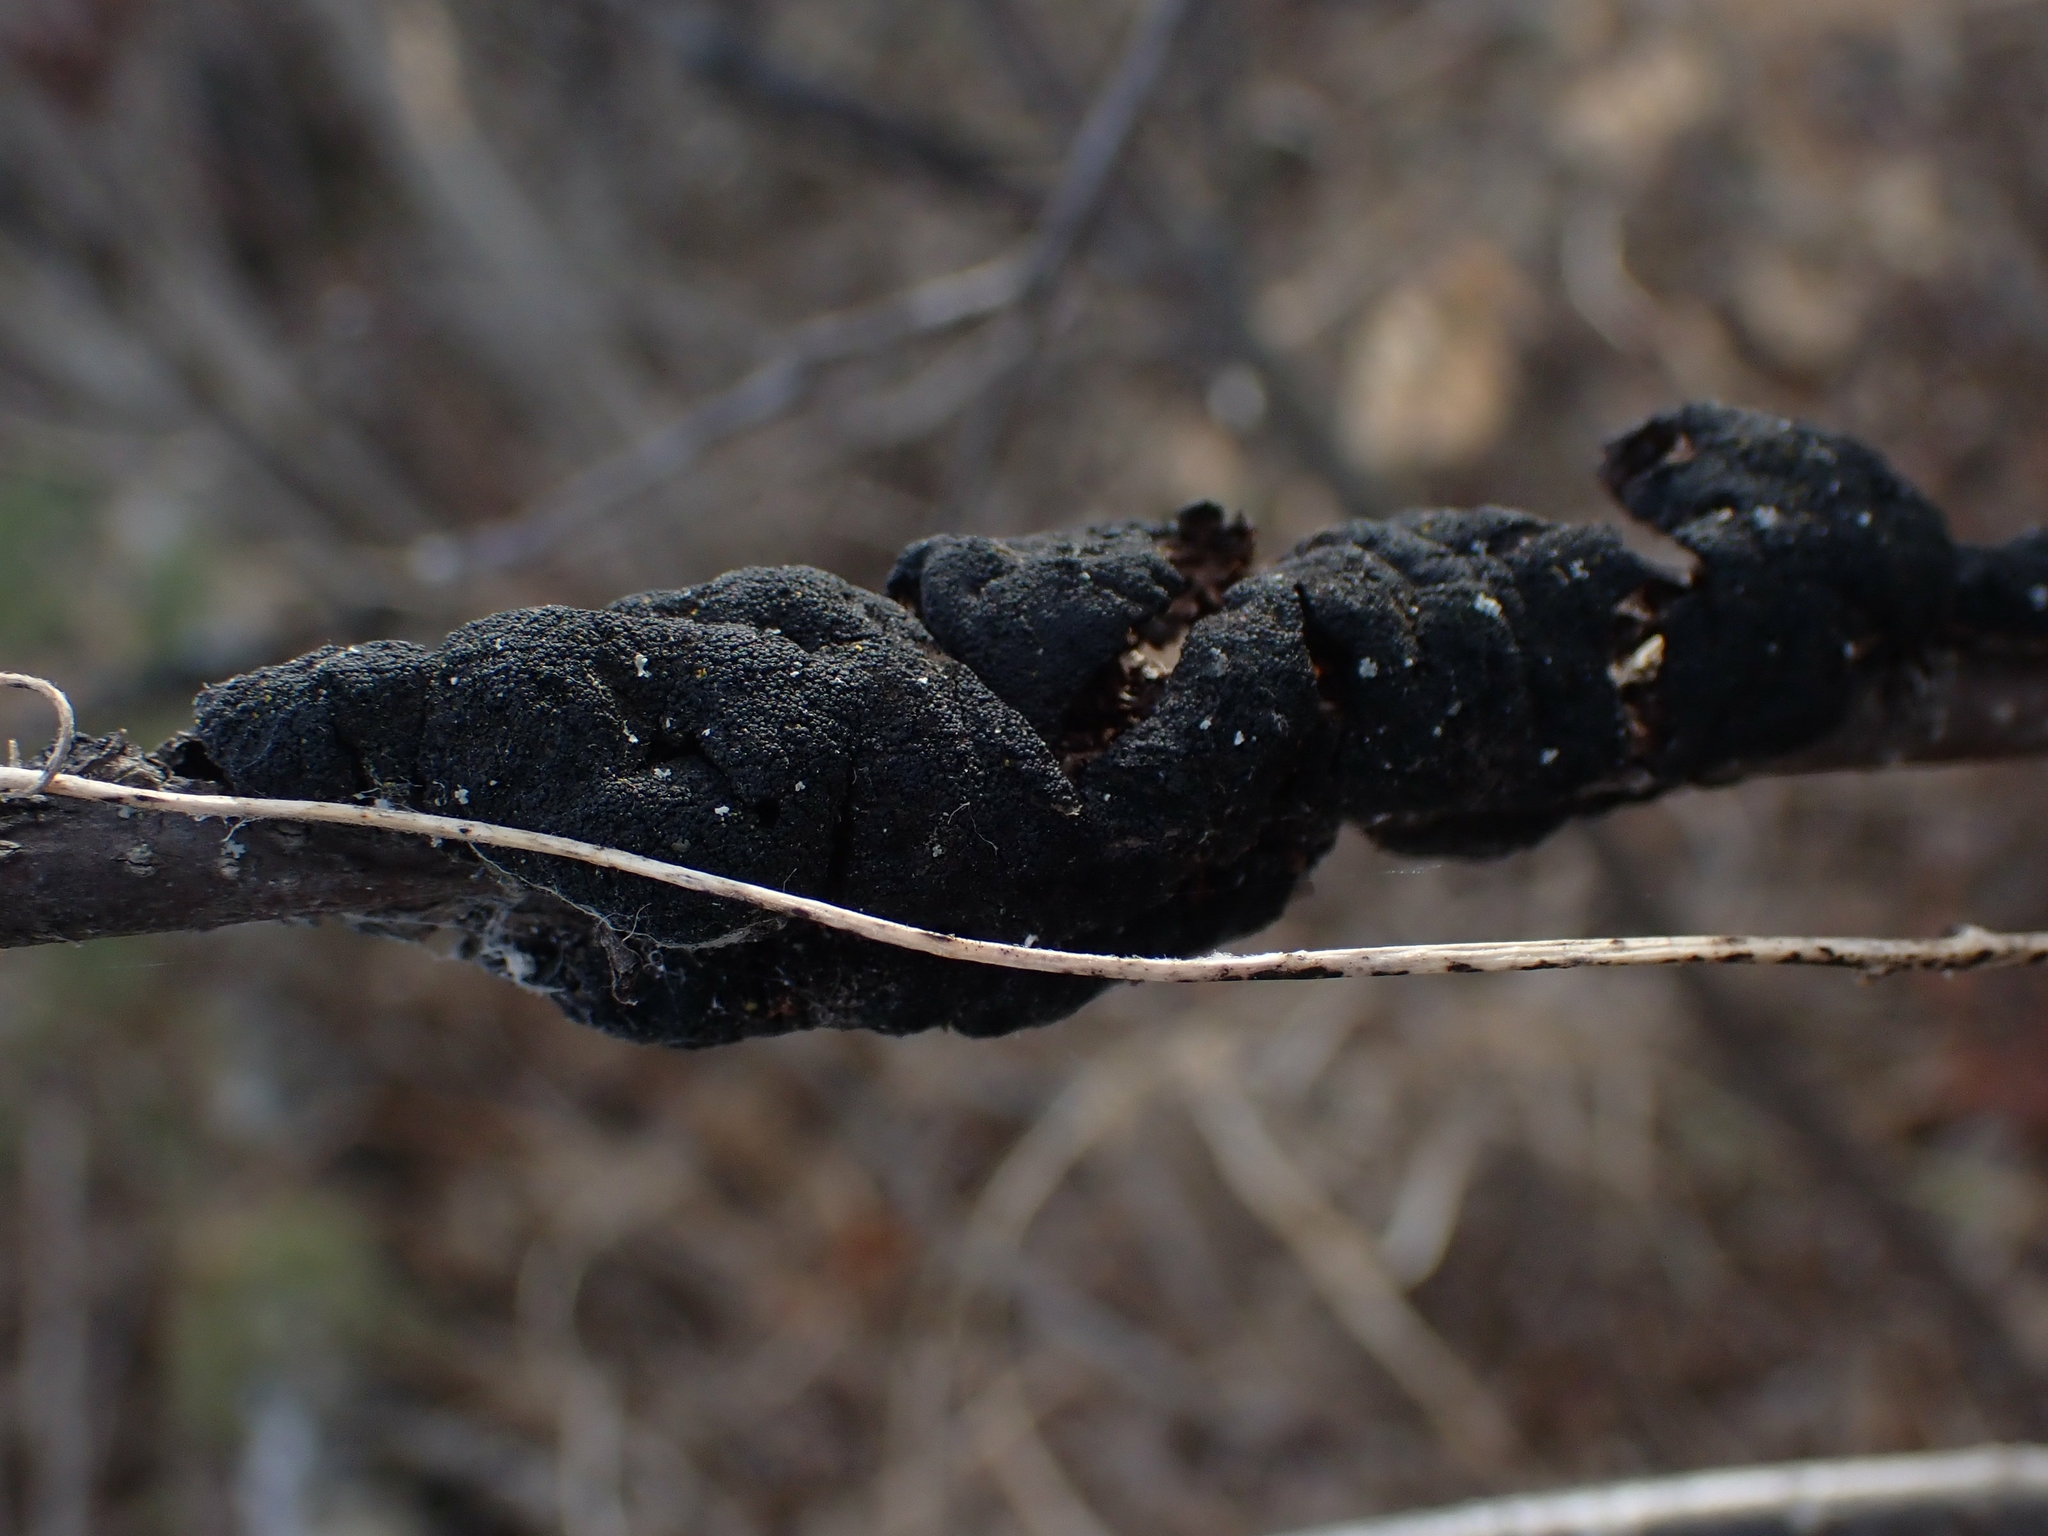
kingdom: Fungi
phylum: Ascomycota
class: Dothideomycetes
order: Venturiales
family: Venturiaceae
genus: Apiosporina
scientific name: Apiosporina morbosa
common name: Black knot
